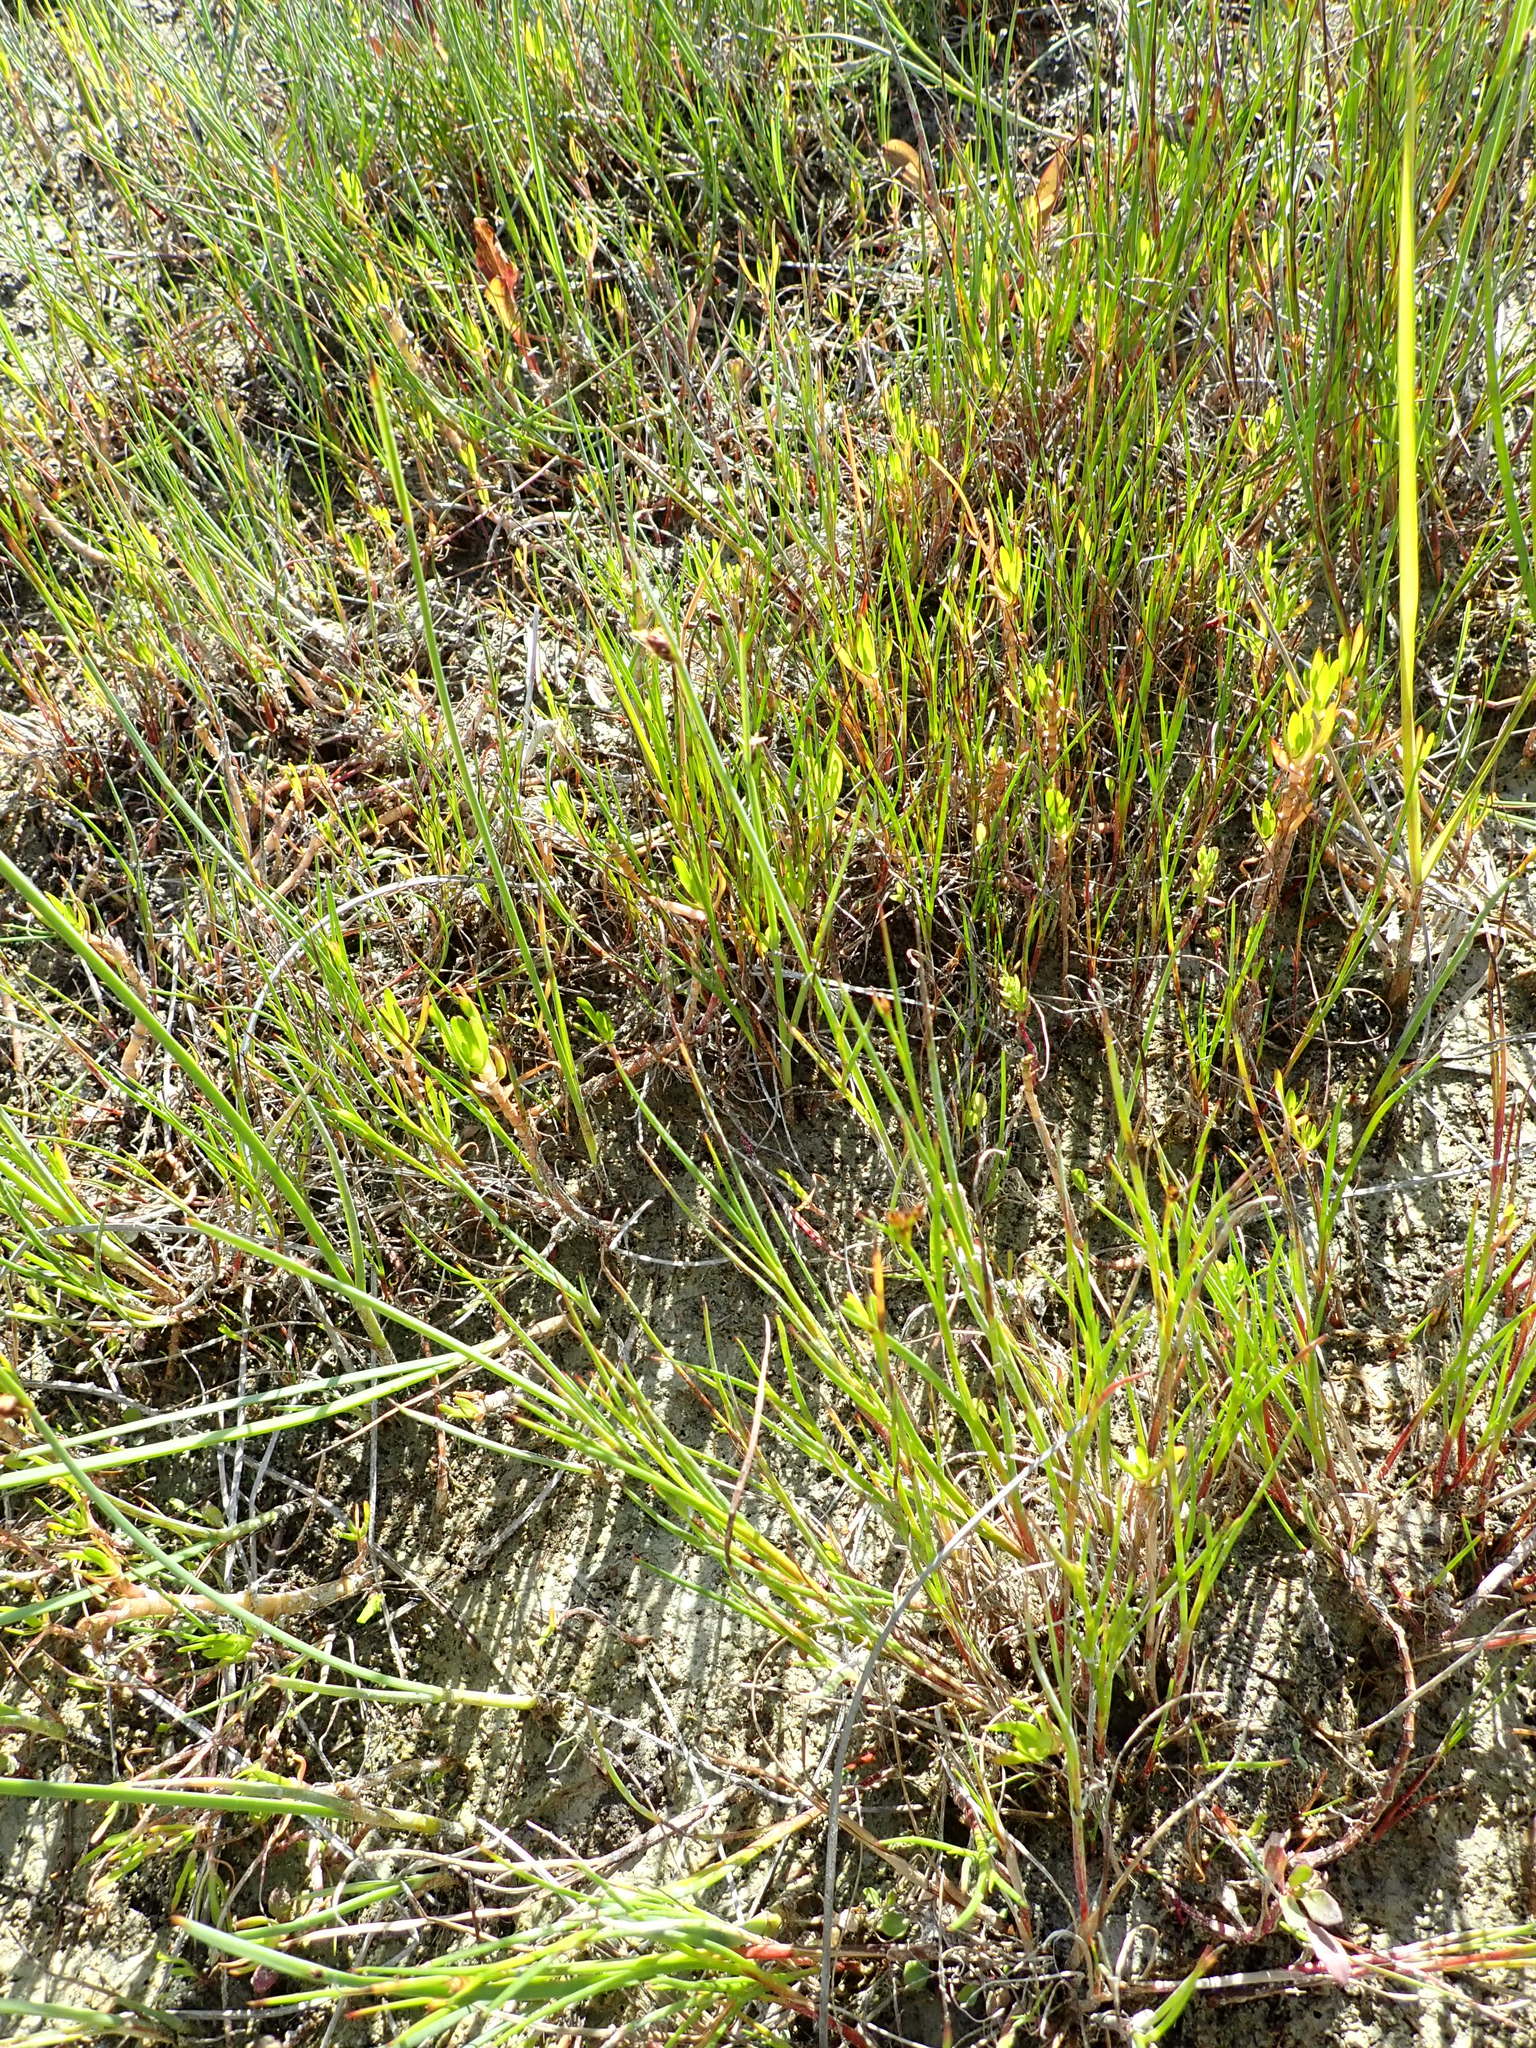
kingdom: Plantae
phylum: Tracheophyta
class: Magnoliopsida
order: Asterales
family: Asteraceae
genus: Cotula
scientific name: Cotula coronopifolia
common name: Buttonweed
